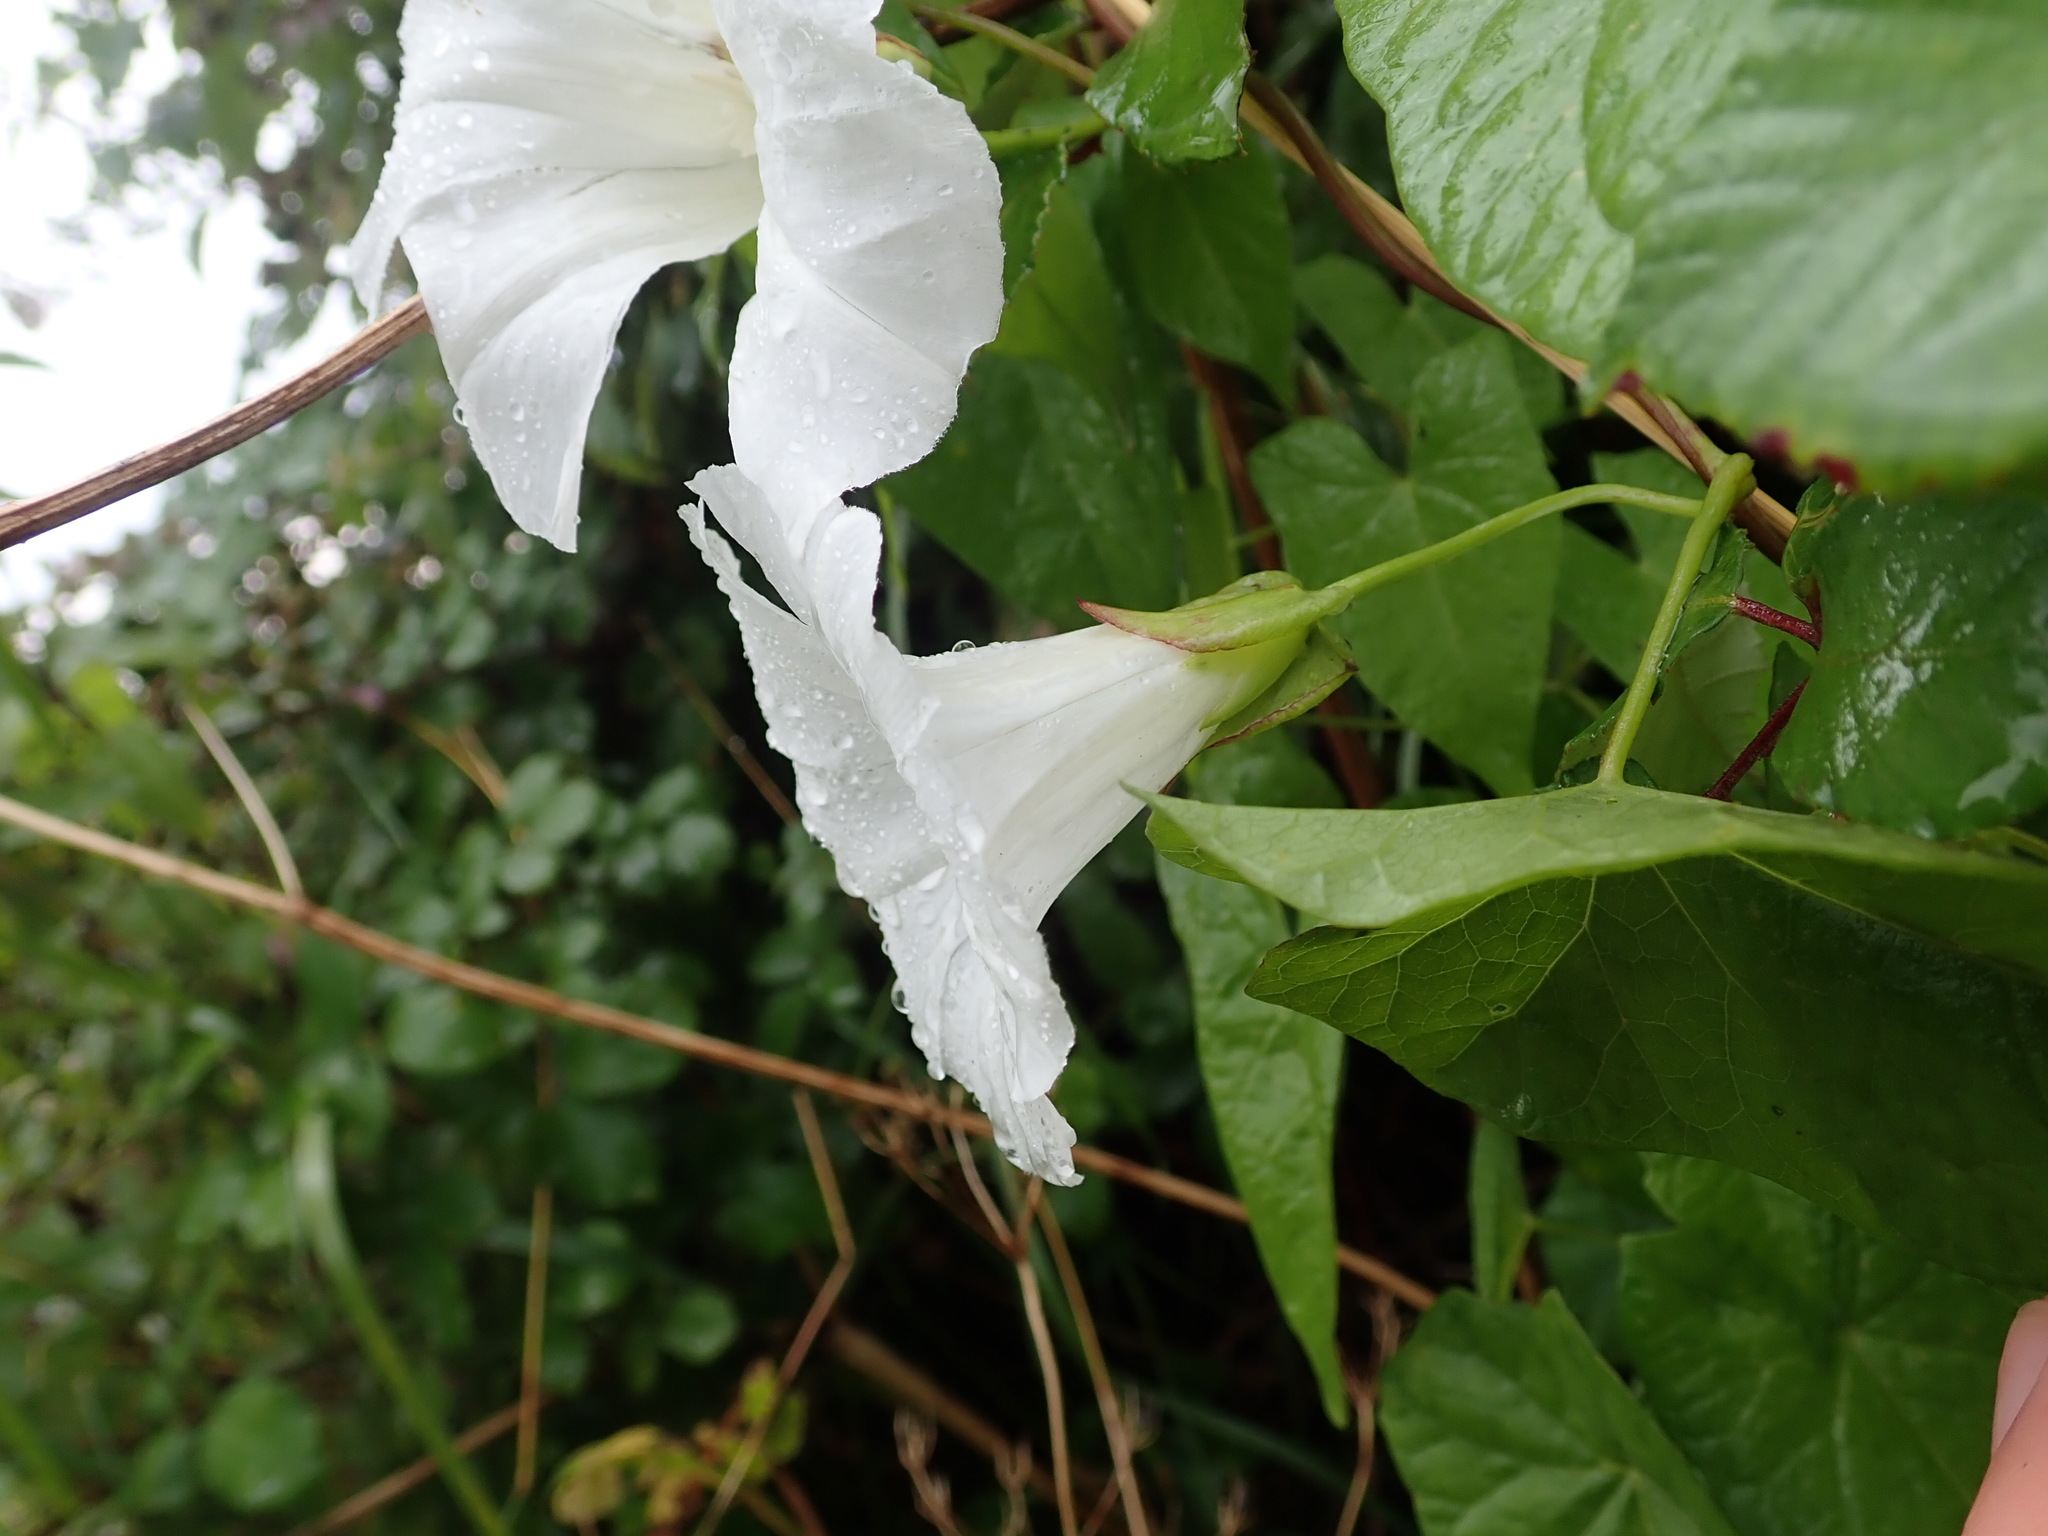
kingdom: Plantae
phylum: Tracheophyta
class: Magnoliopsida
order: Solanales
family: Convolvulaceae
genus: Calystegia
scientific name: Calystegia sepium
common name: Hedge bindweed
